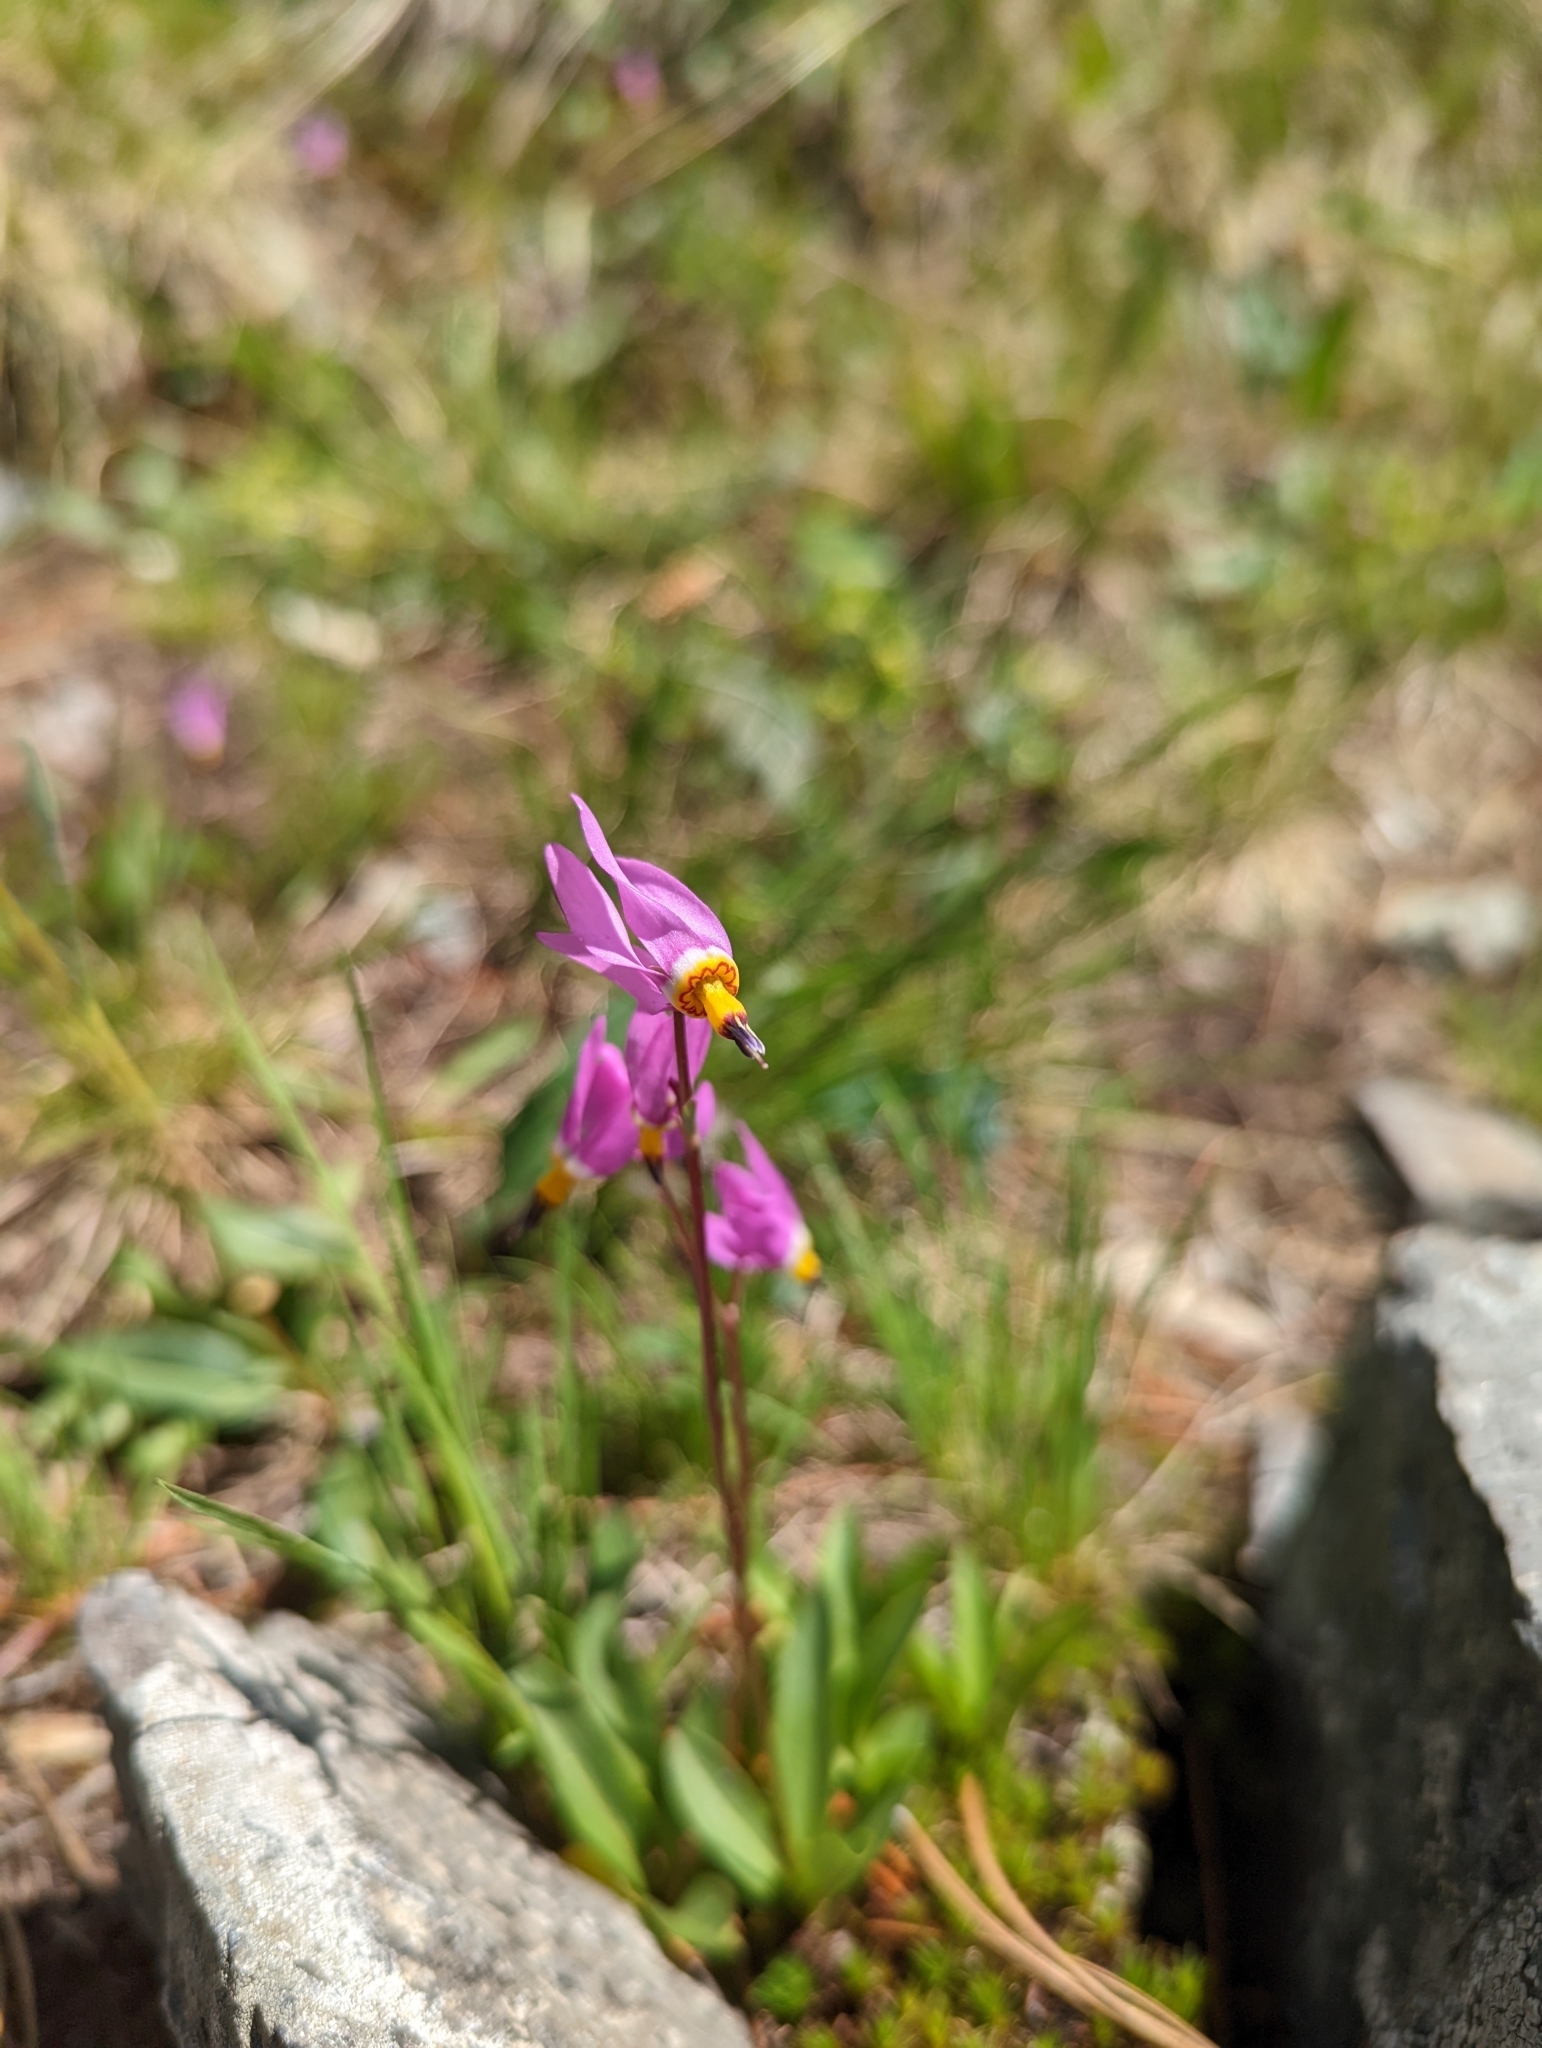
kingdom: Plantae
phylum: Tracheophyta
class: Magnoliopsida
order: Ericales
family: Primulaceae
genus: Dodecatheon
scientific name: Dodecatheon pulchellum
